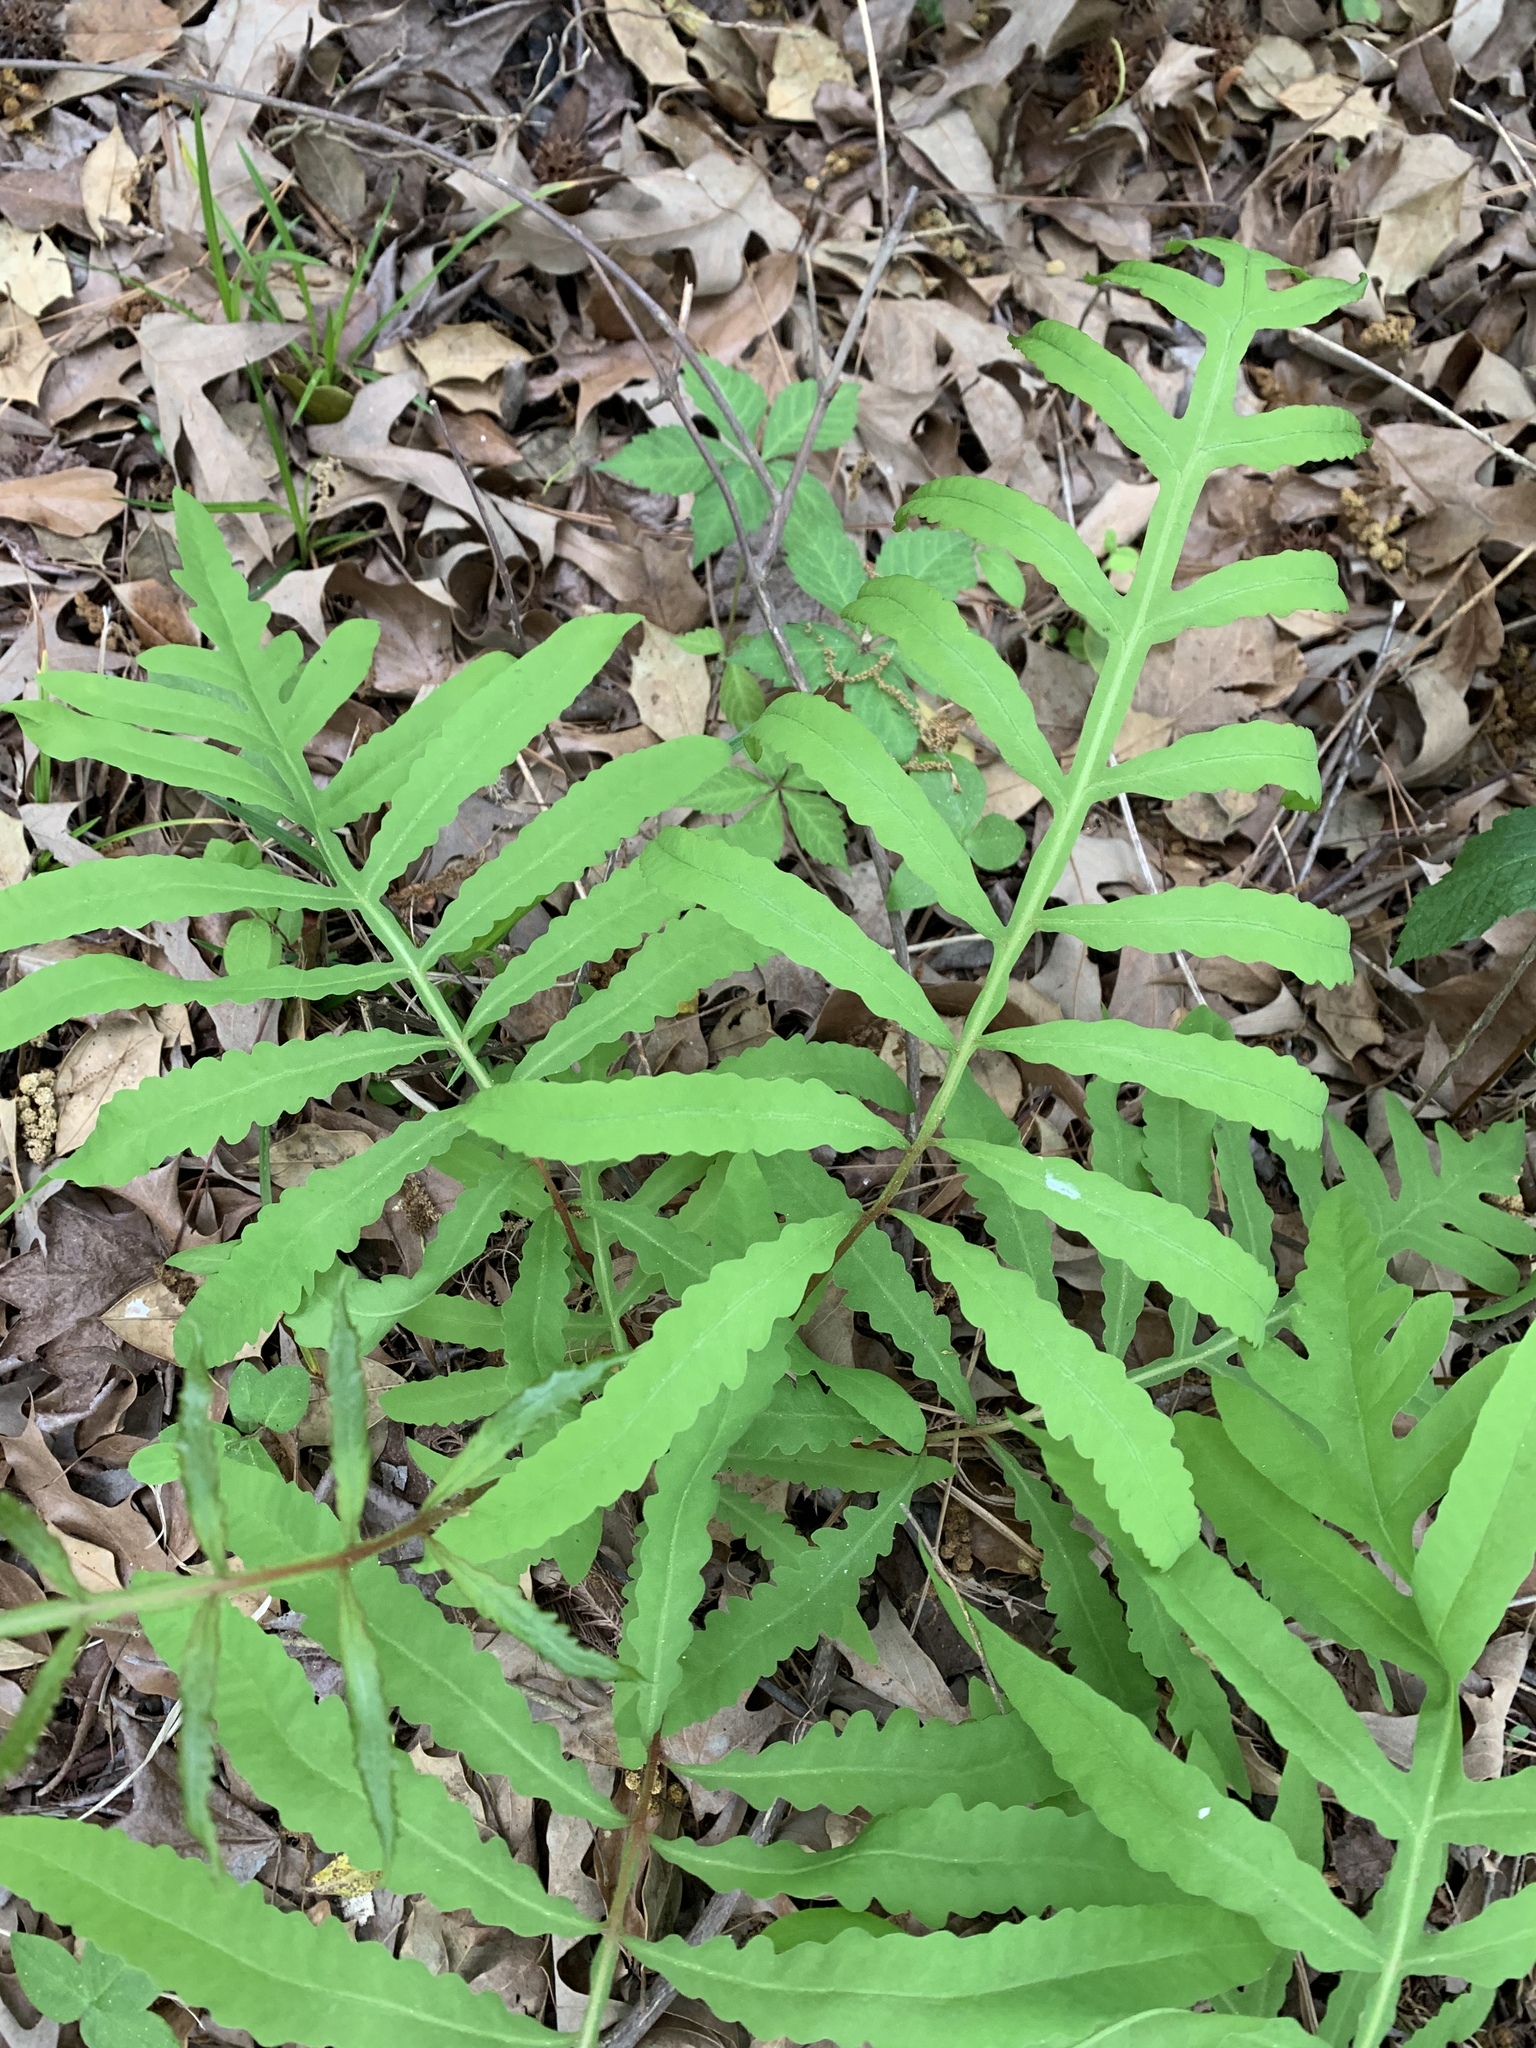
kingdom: Plantae
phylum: Tracheophyta
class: Polypodiopsida
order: Polypodiales
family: Onocleaceae
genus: Onoclea
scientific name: Onoclea sensibilis
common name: Sensitive fern
